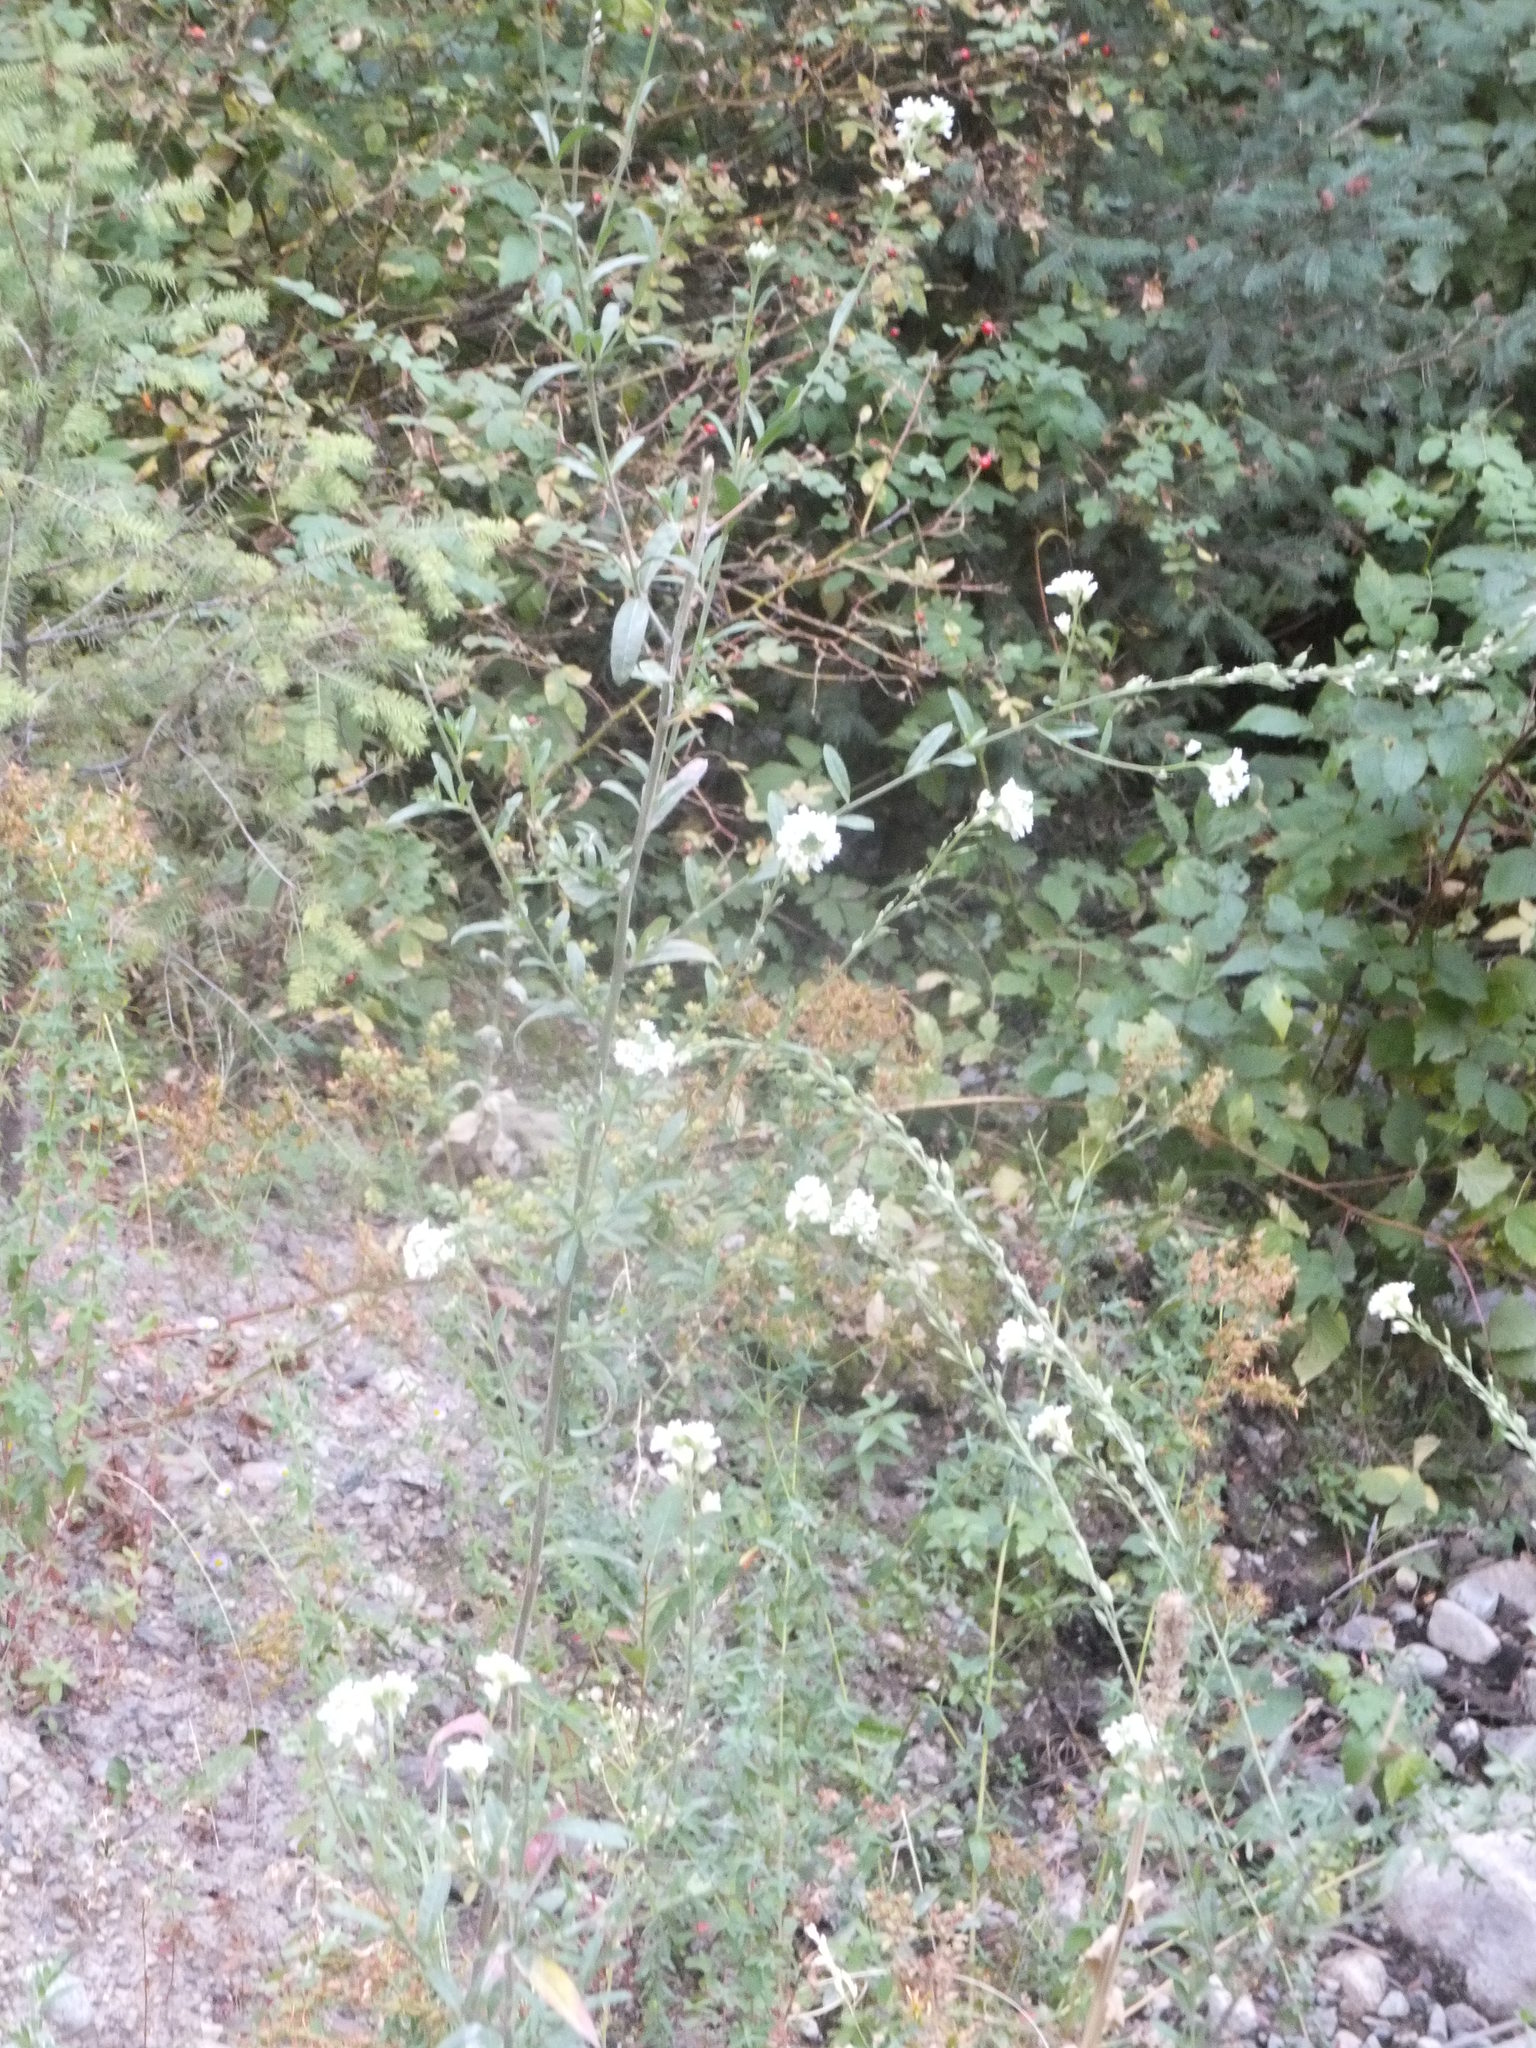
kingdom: Plantae
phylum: Tracheophyta
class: Magnoliopsida
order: Brassicales
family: Brassicaceae
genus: Berteroa
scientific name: Berteroa incana
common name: Hoary alison
